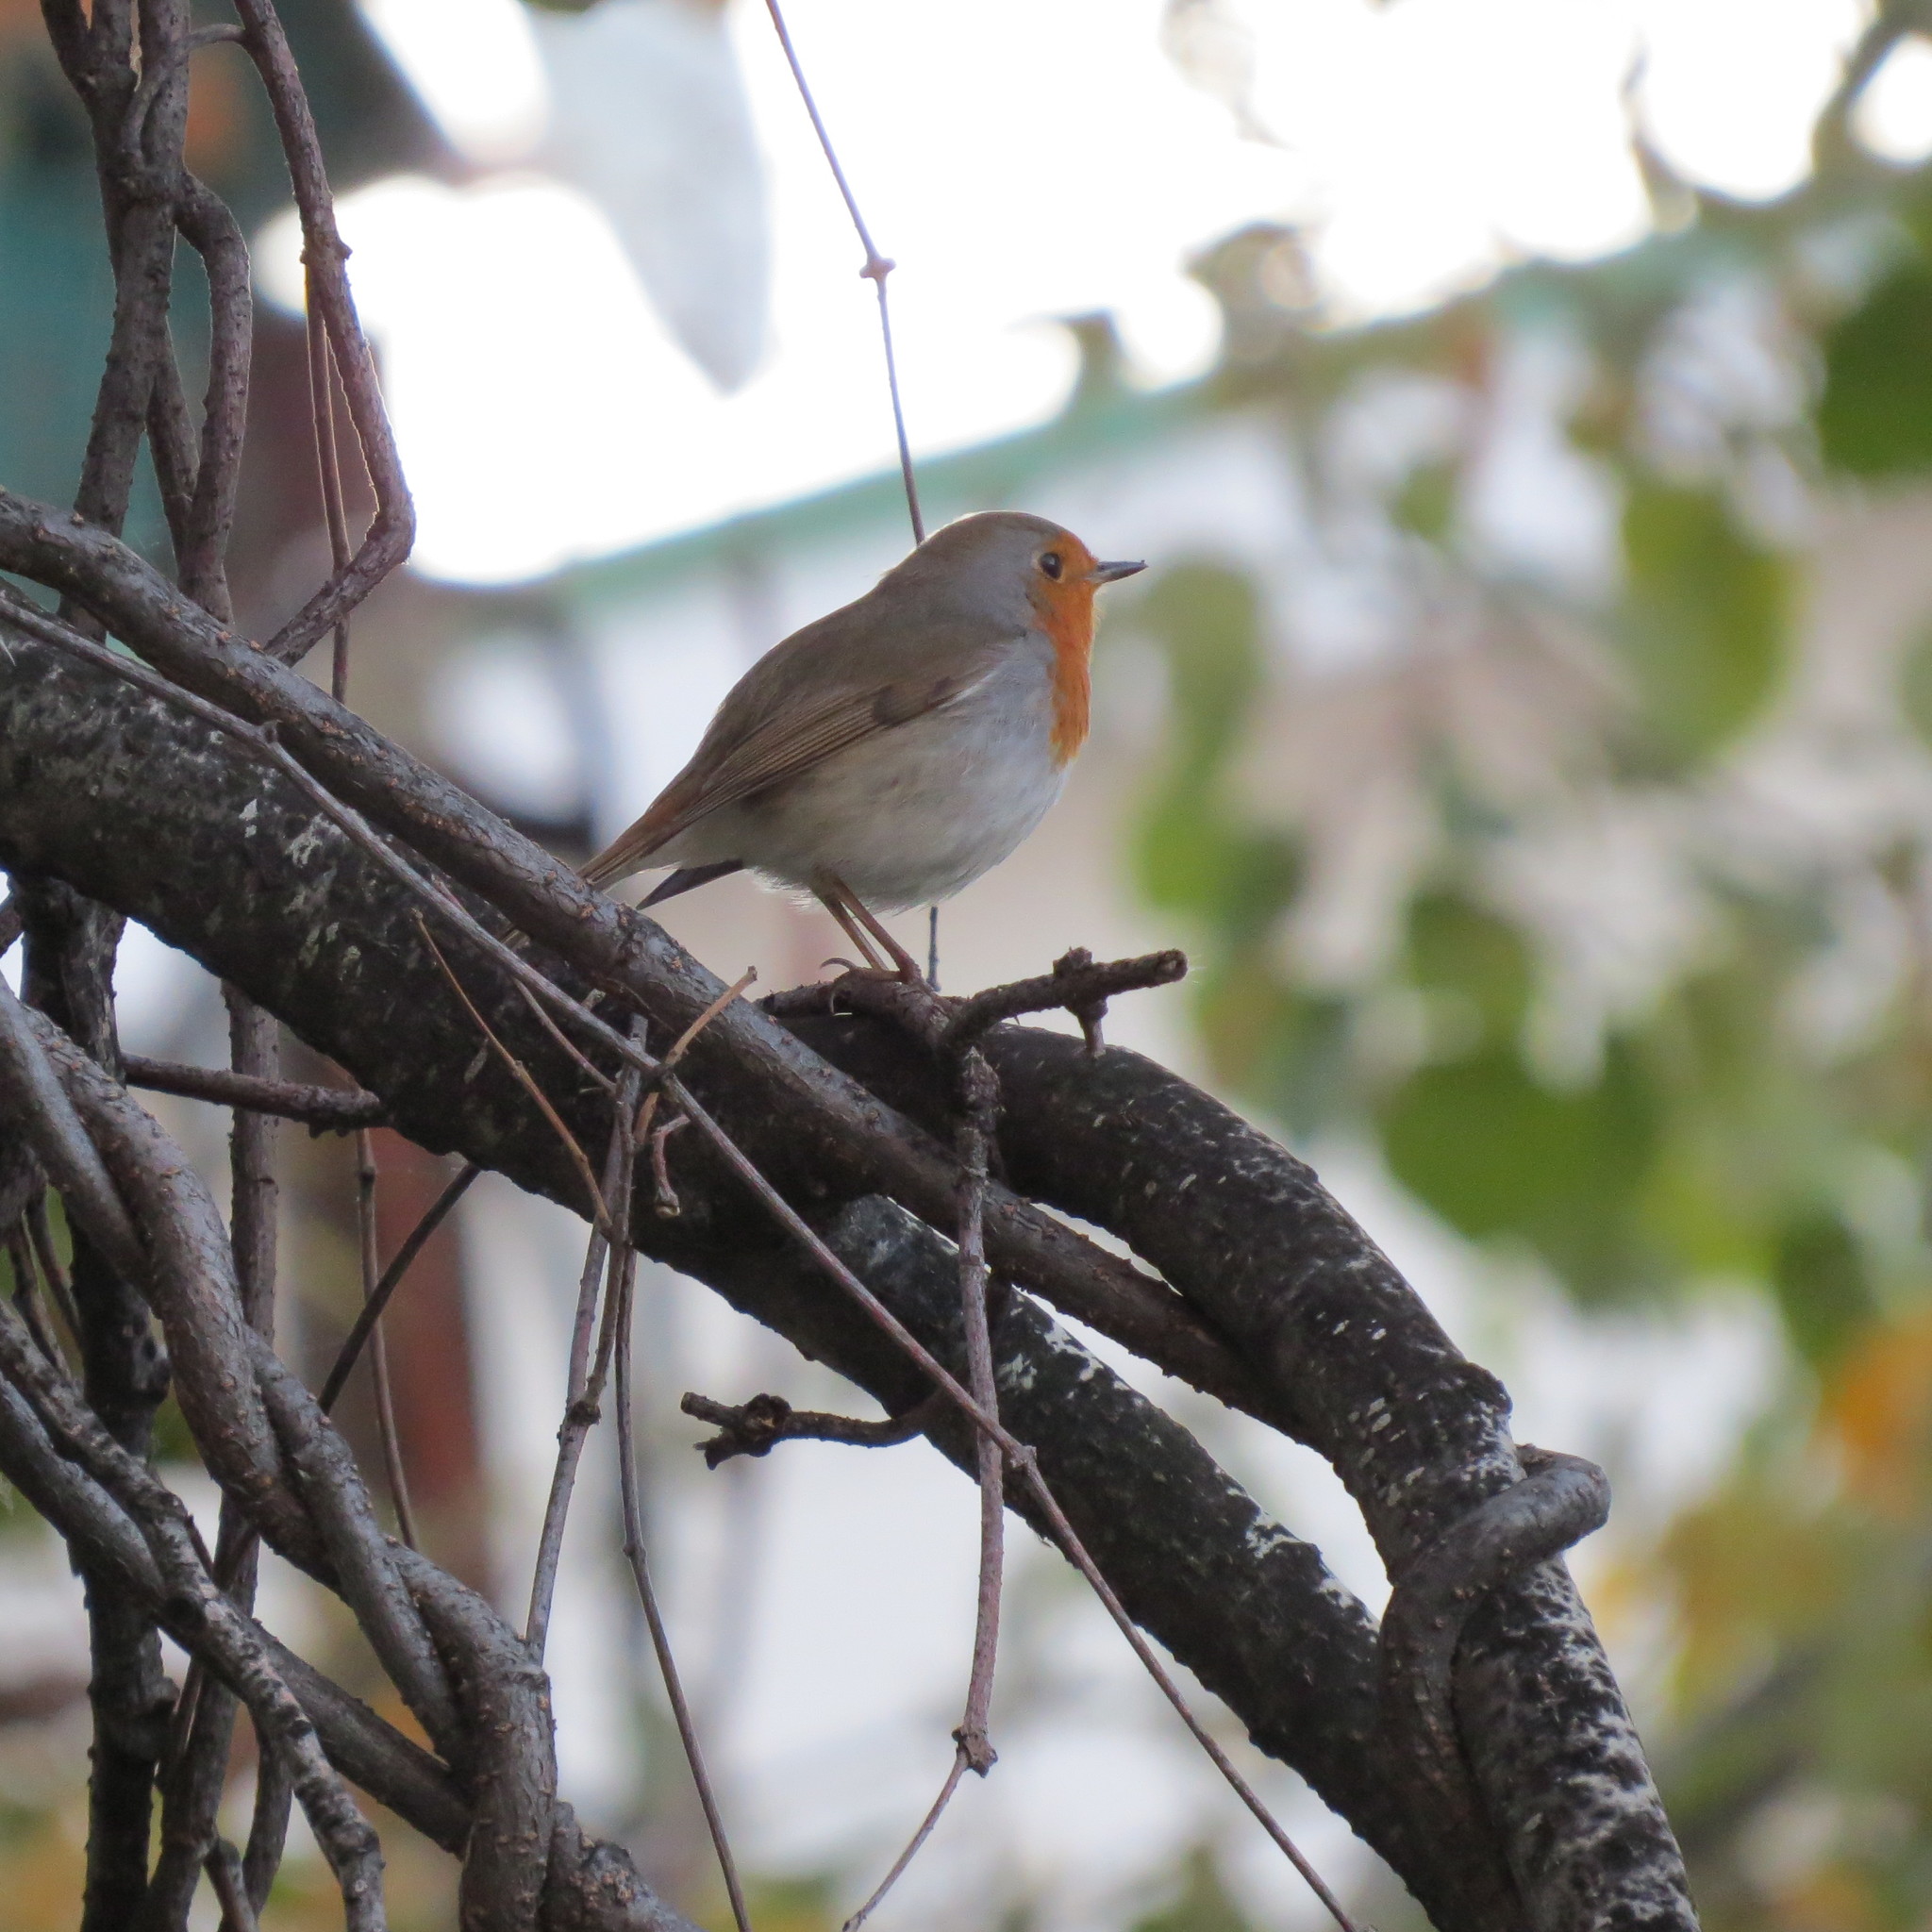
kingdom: Animalia
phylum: Chordata
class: Aves
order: Passeriformes
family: Muscicapidae
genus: Erithacus
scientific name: Erithacus rubecula
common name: European robin
